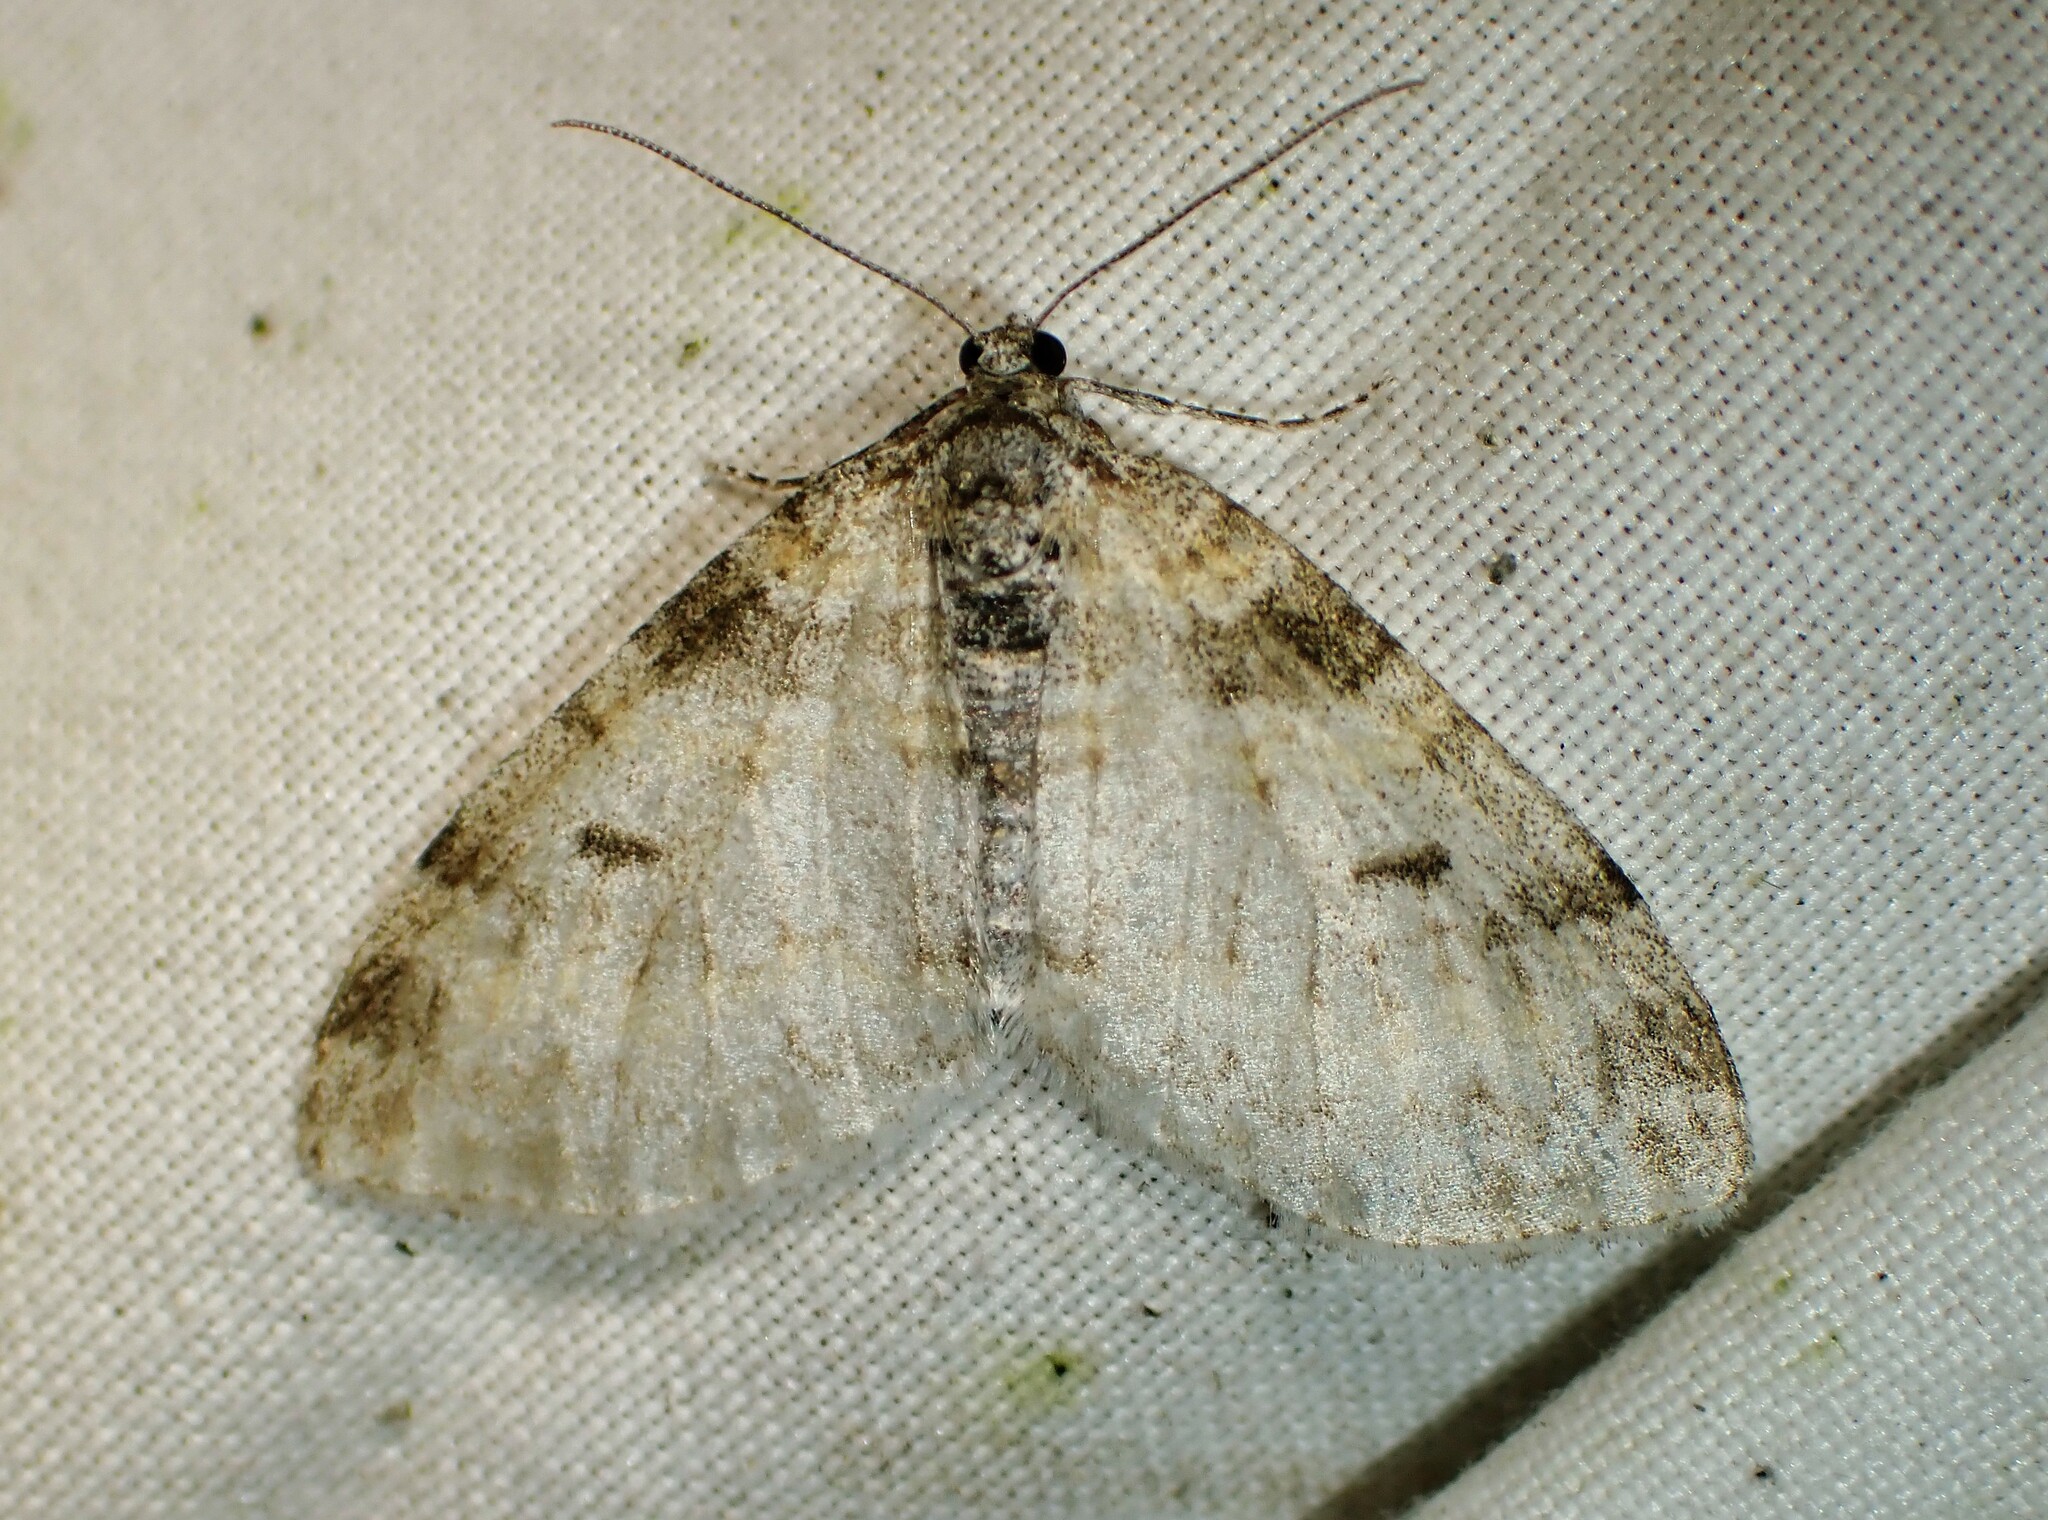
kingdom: Animalia
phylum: Arthropoda
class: Insecta
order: Lepidoptera
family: Geometridae
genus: Lobophora
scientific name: Lobophora nivigerata
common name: Powdered bigwing
